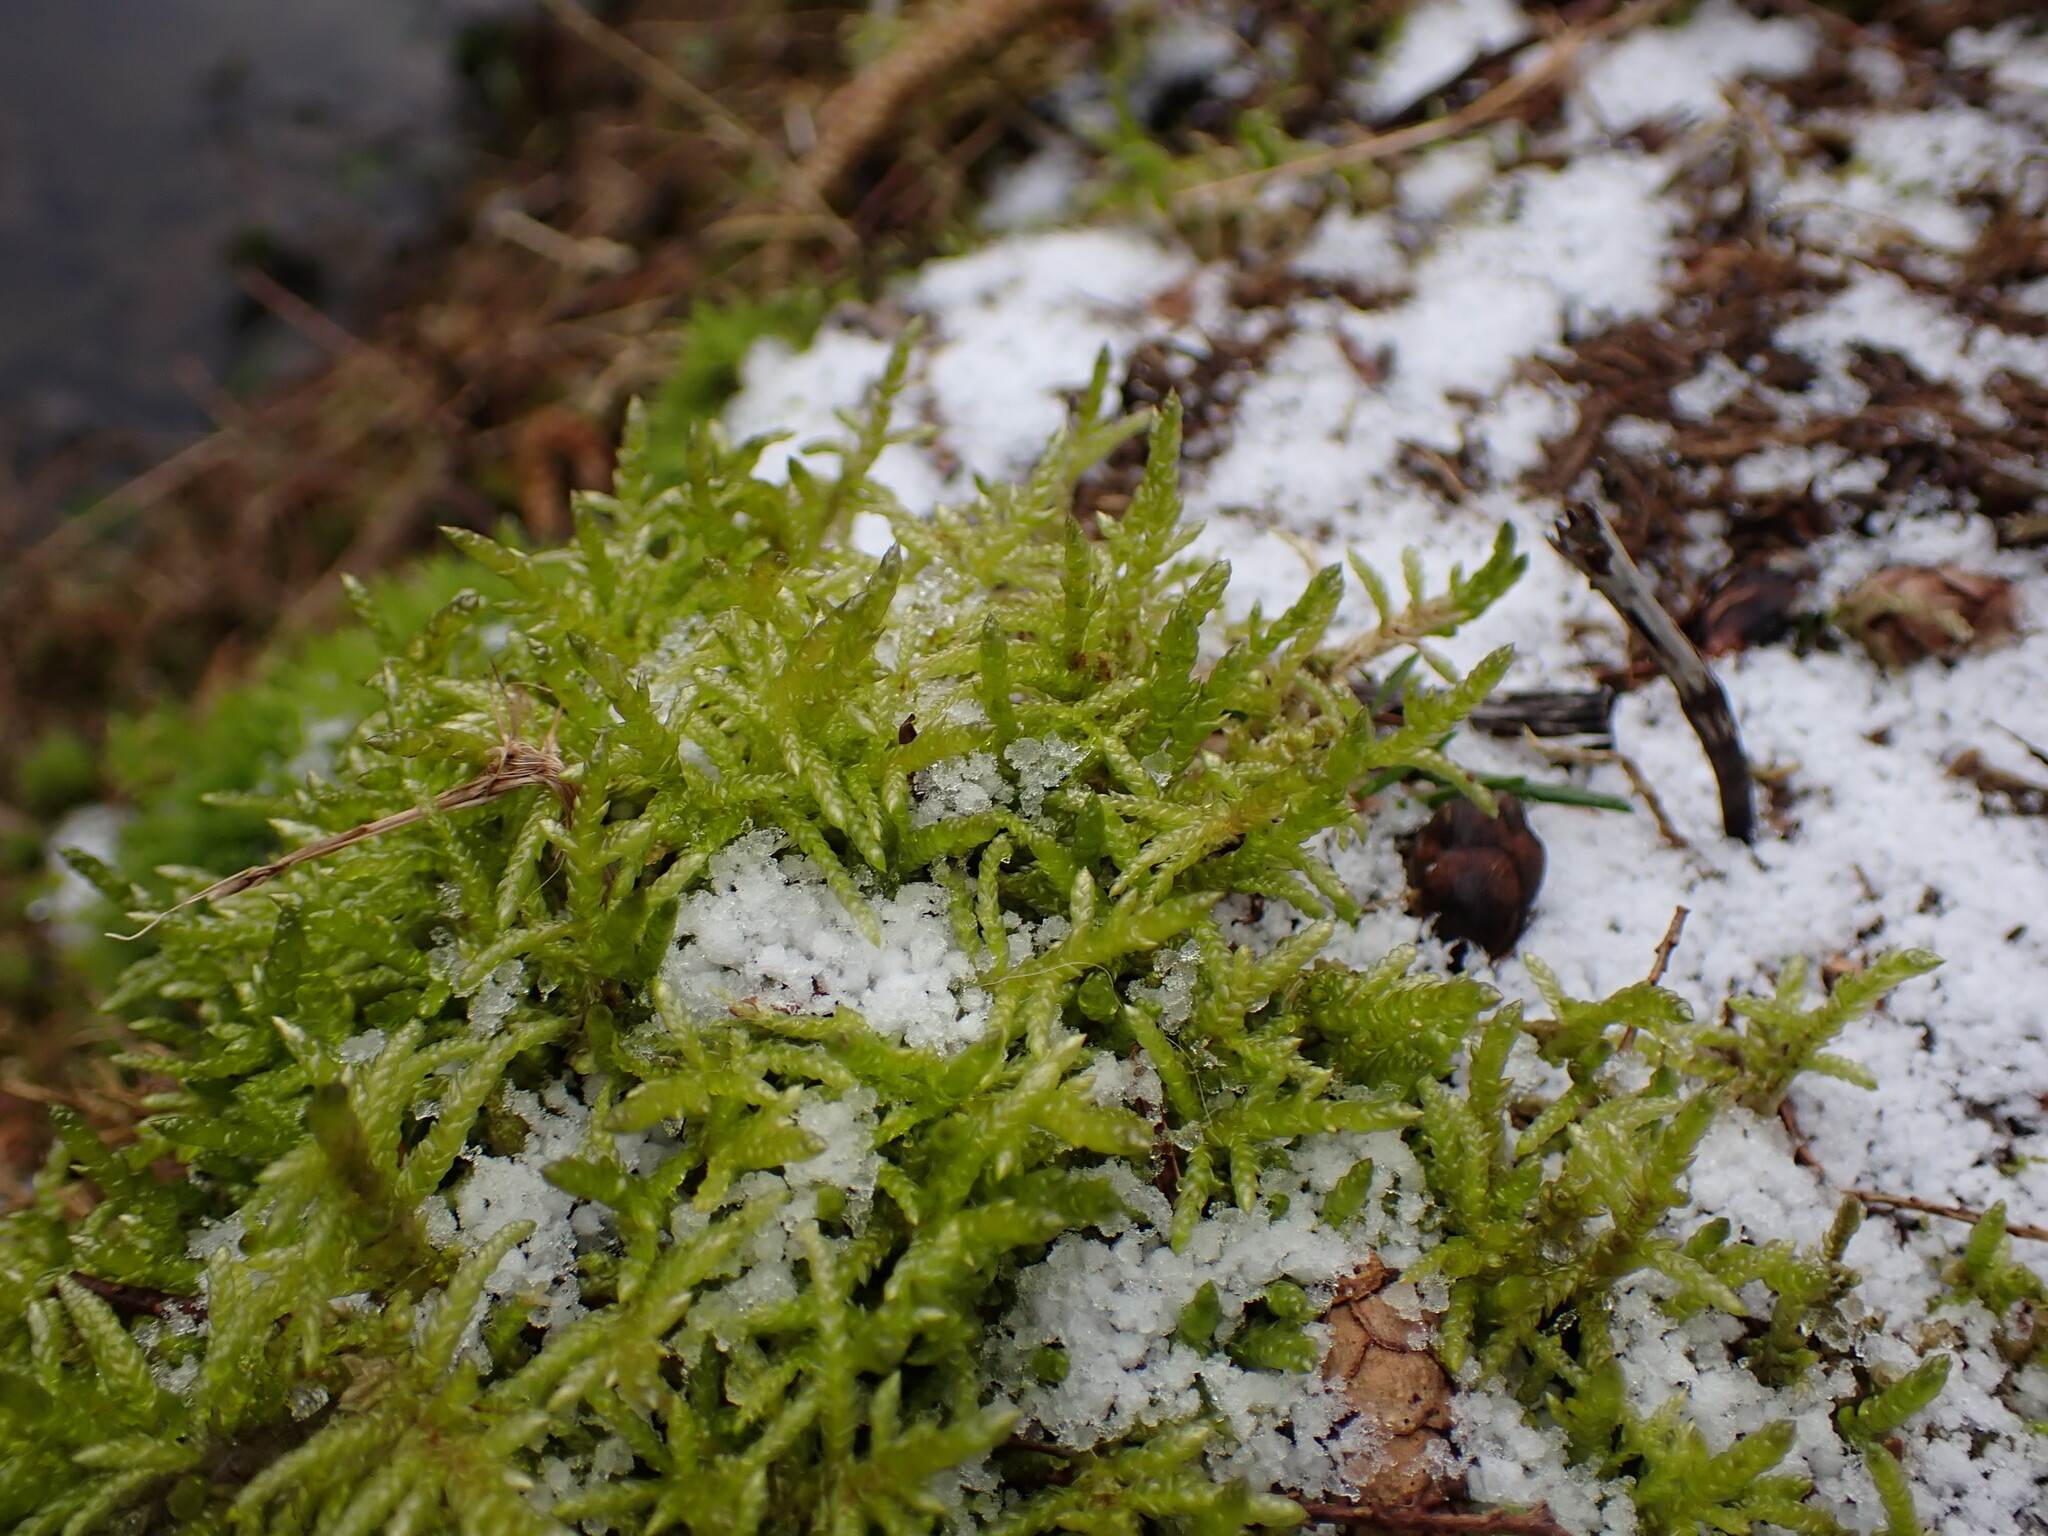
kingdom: Plantae
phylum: Bryophyta
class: Bryopsida
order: Hypnales
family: Brachytheciaceae
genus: Pseudoscleropodium
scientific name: Pseudoscleropodium purum
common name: Neat feather-moss
